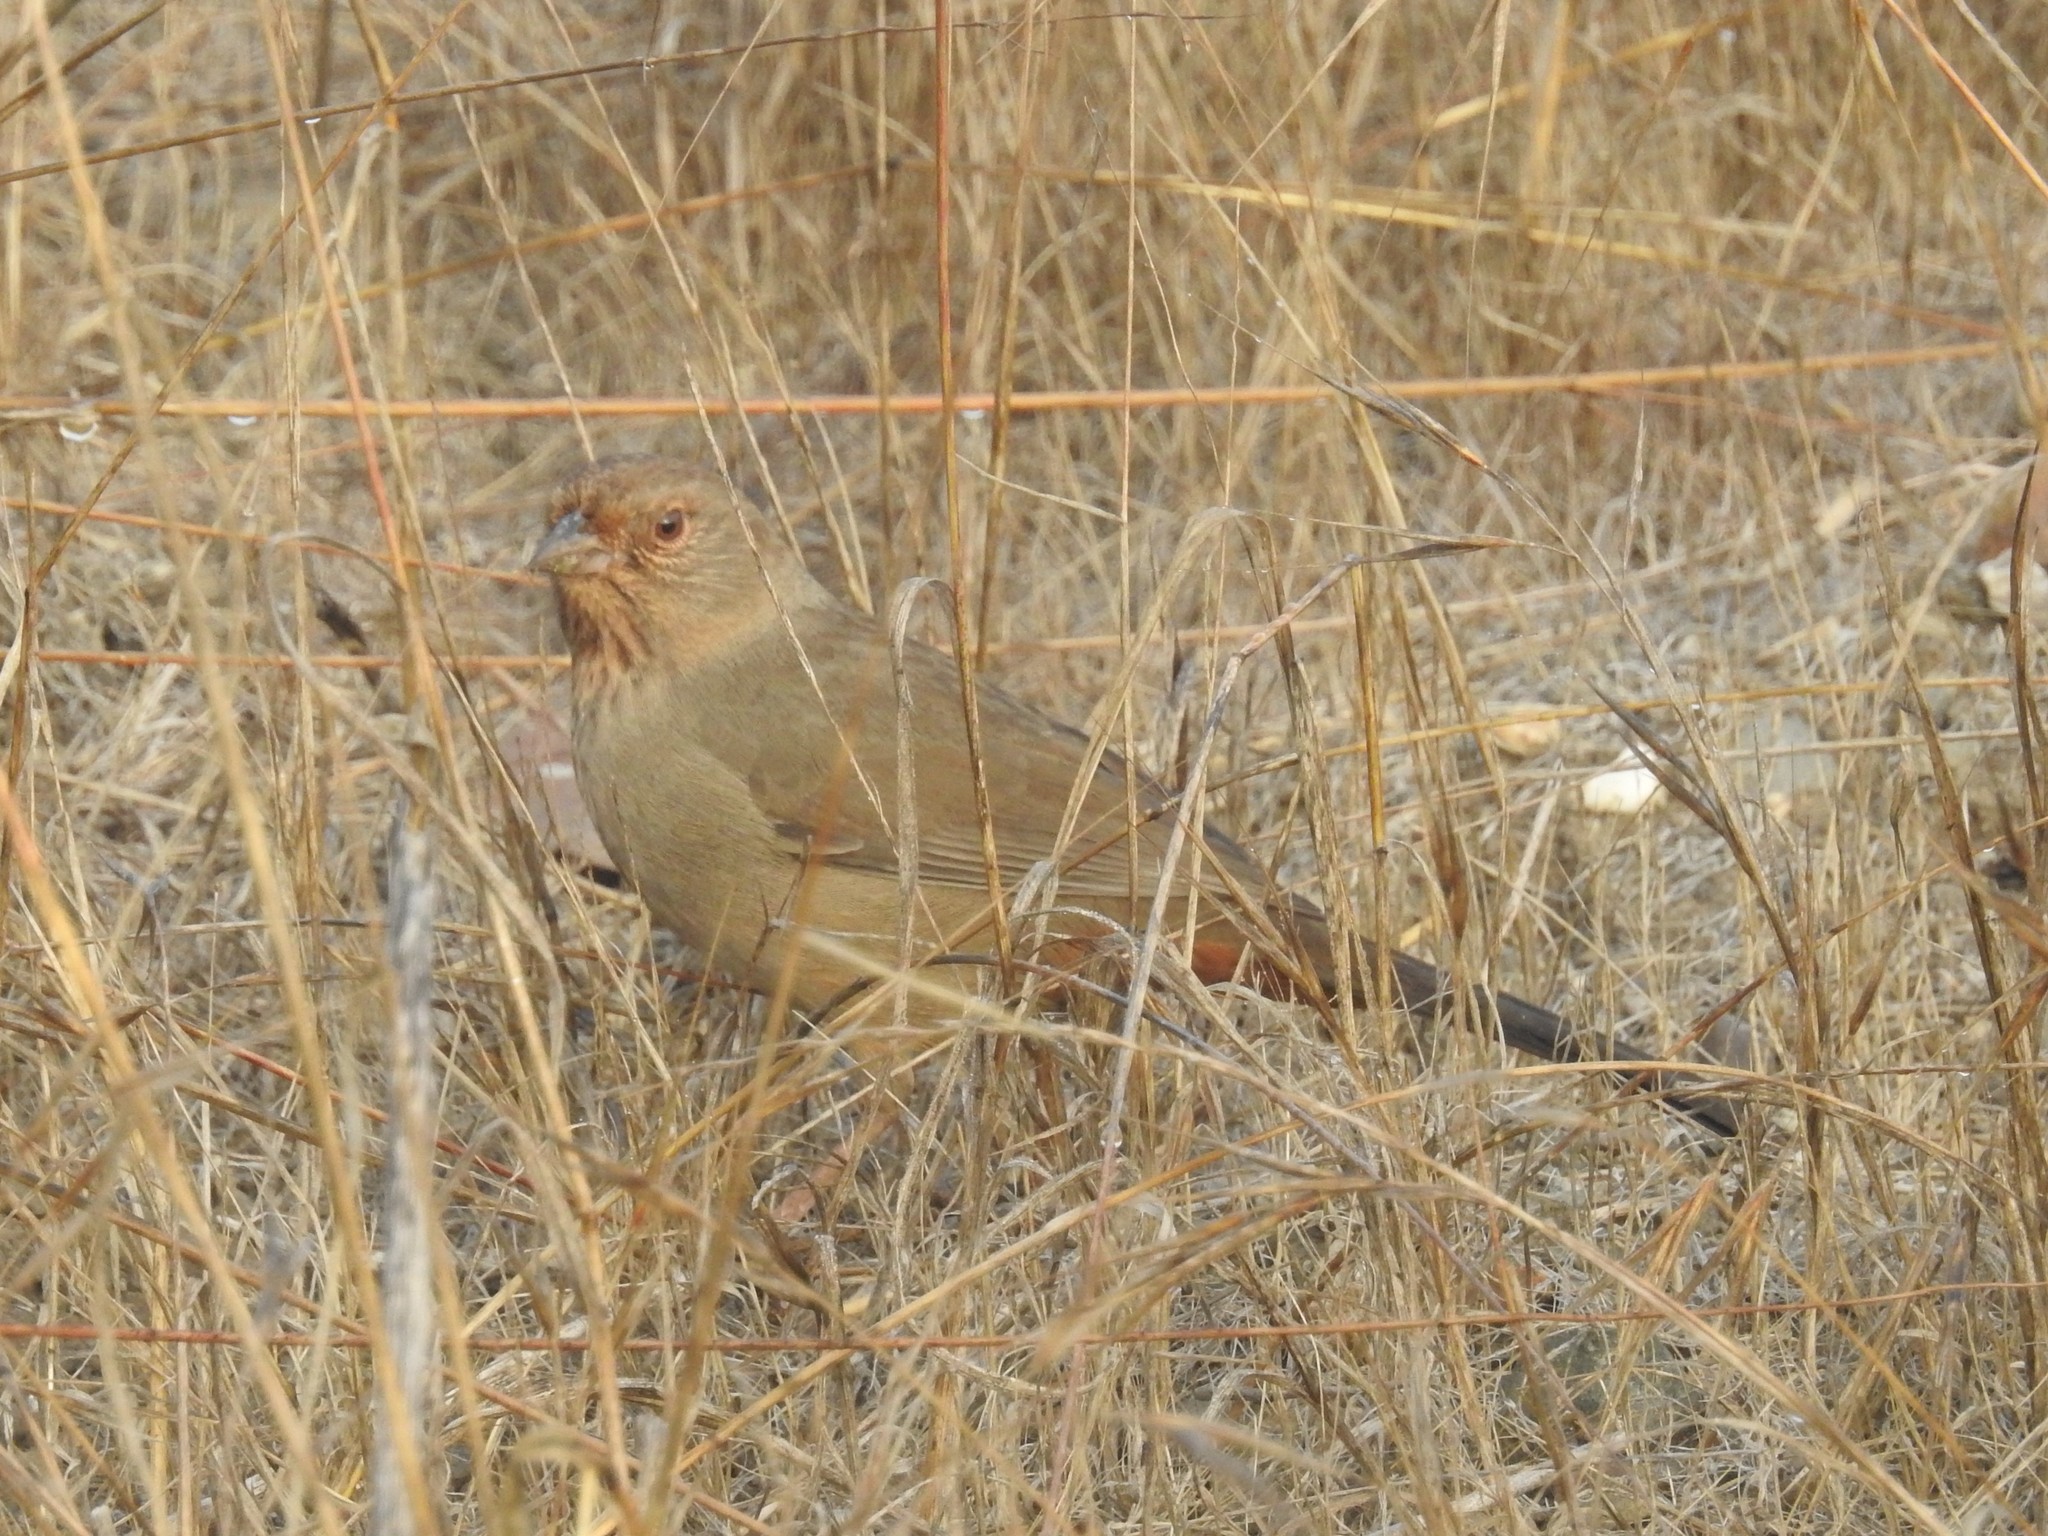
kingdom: Animalia
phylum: Chordata
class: Aves
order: Passeriformes
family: Passerellidae
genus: Melozone
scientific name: Melozone crissalis
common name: California towhee
